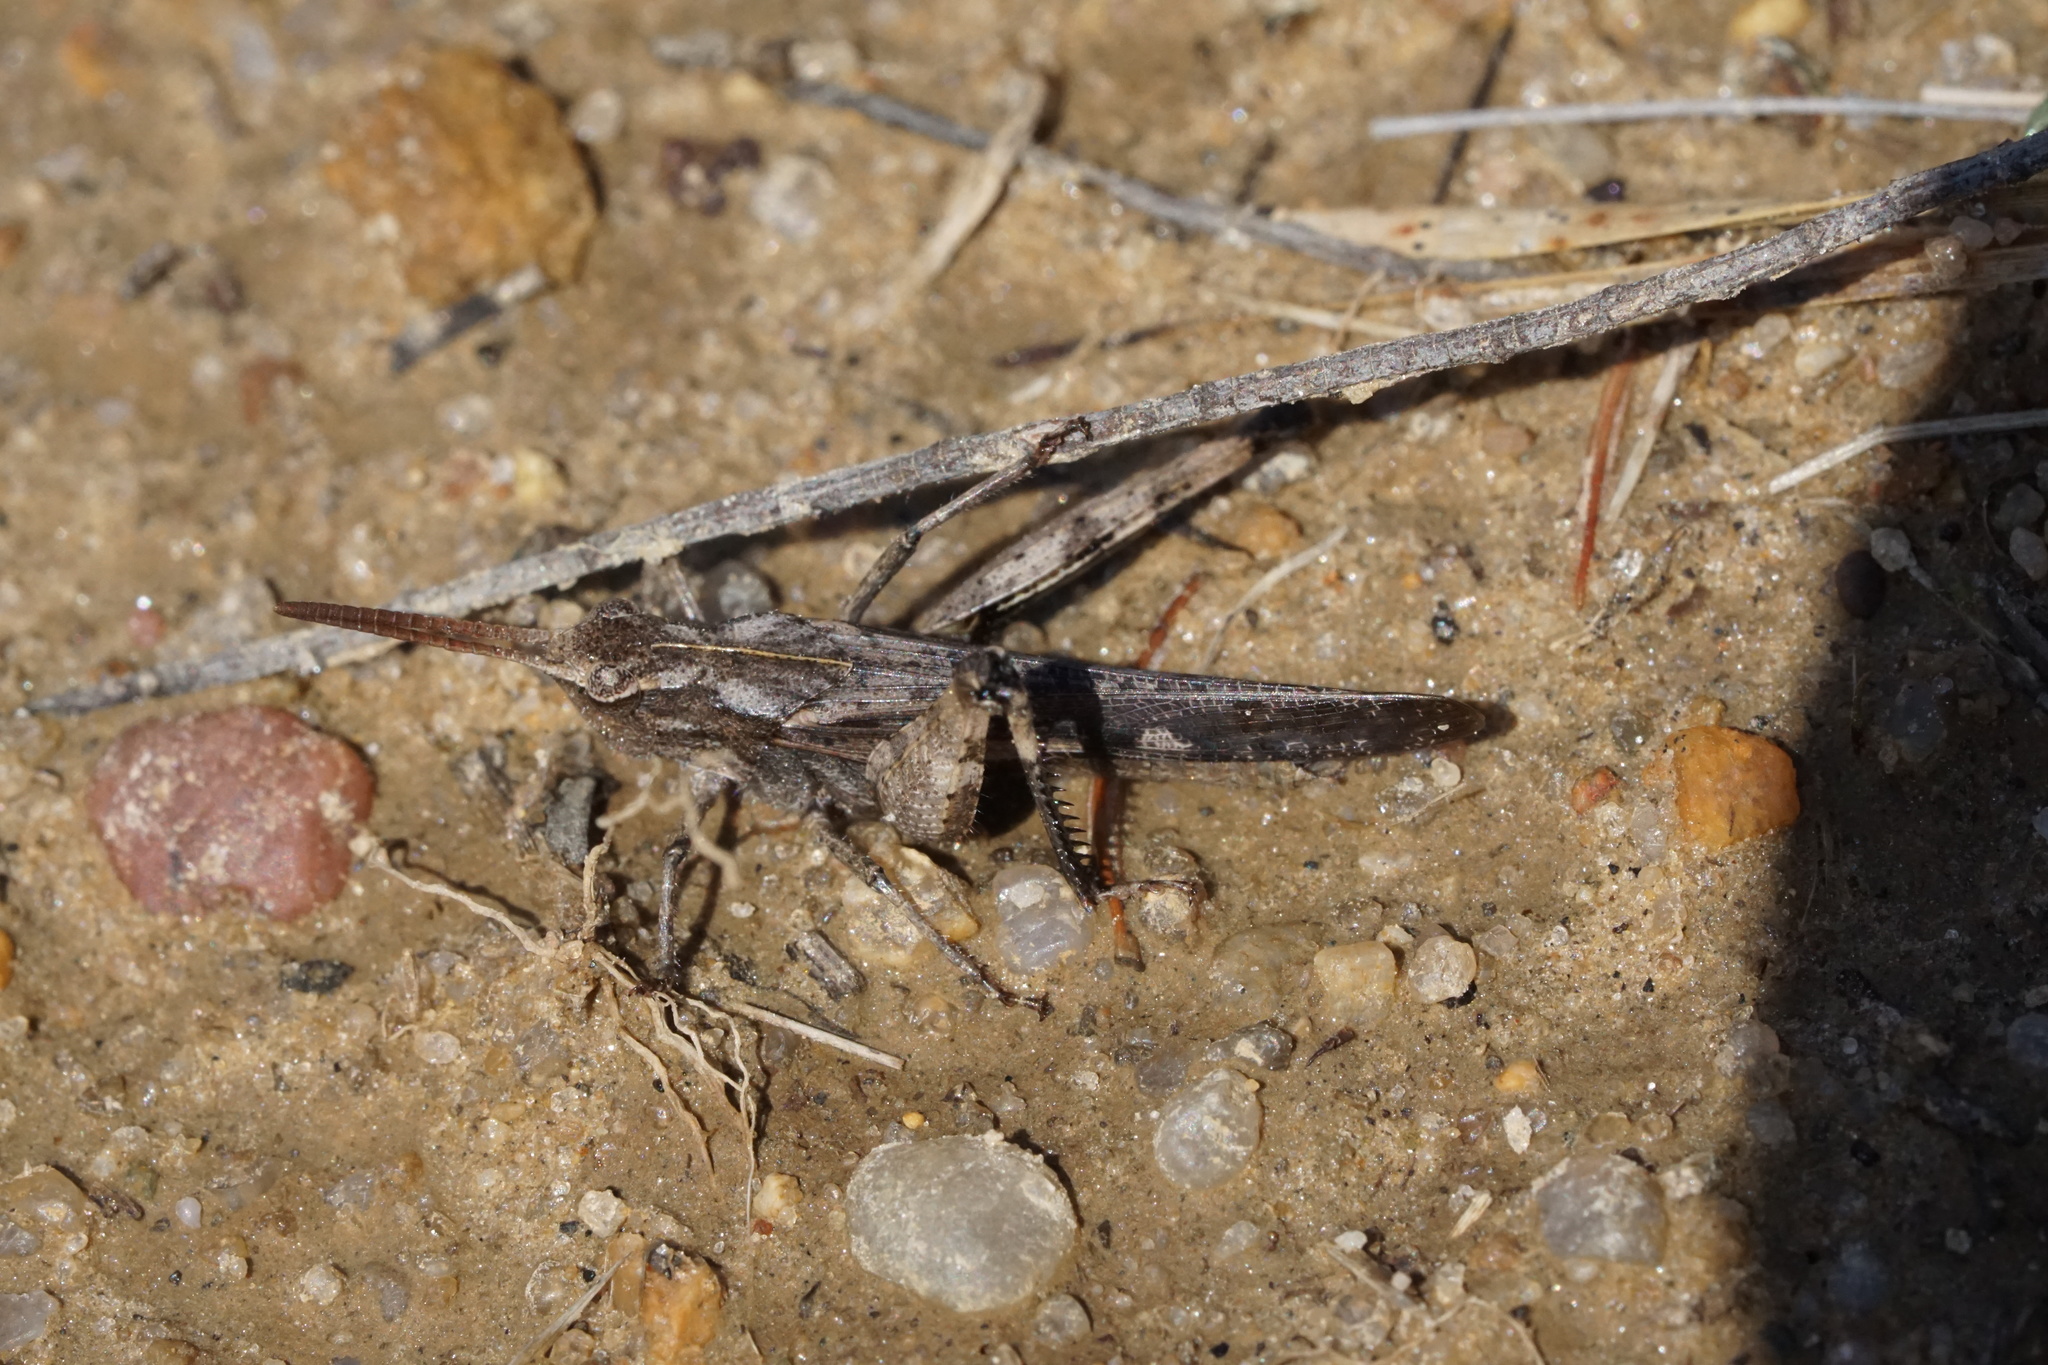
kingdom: Animalia
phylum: Arthropoda
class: Insecta
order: Orthoptera
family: Acrididae
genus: Chortophaga
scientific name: Chortophaga viridifasciata
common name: Green-striped grasshopper
